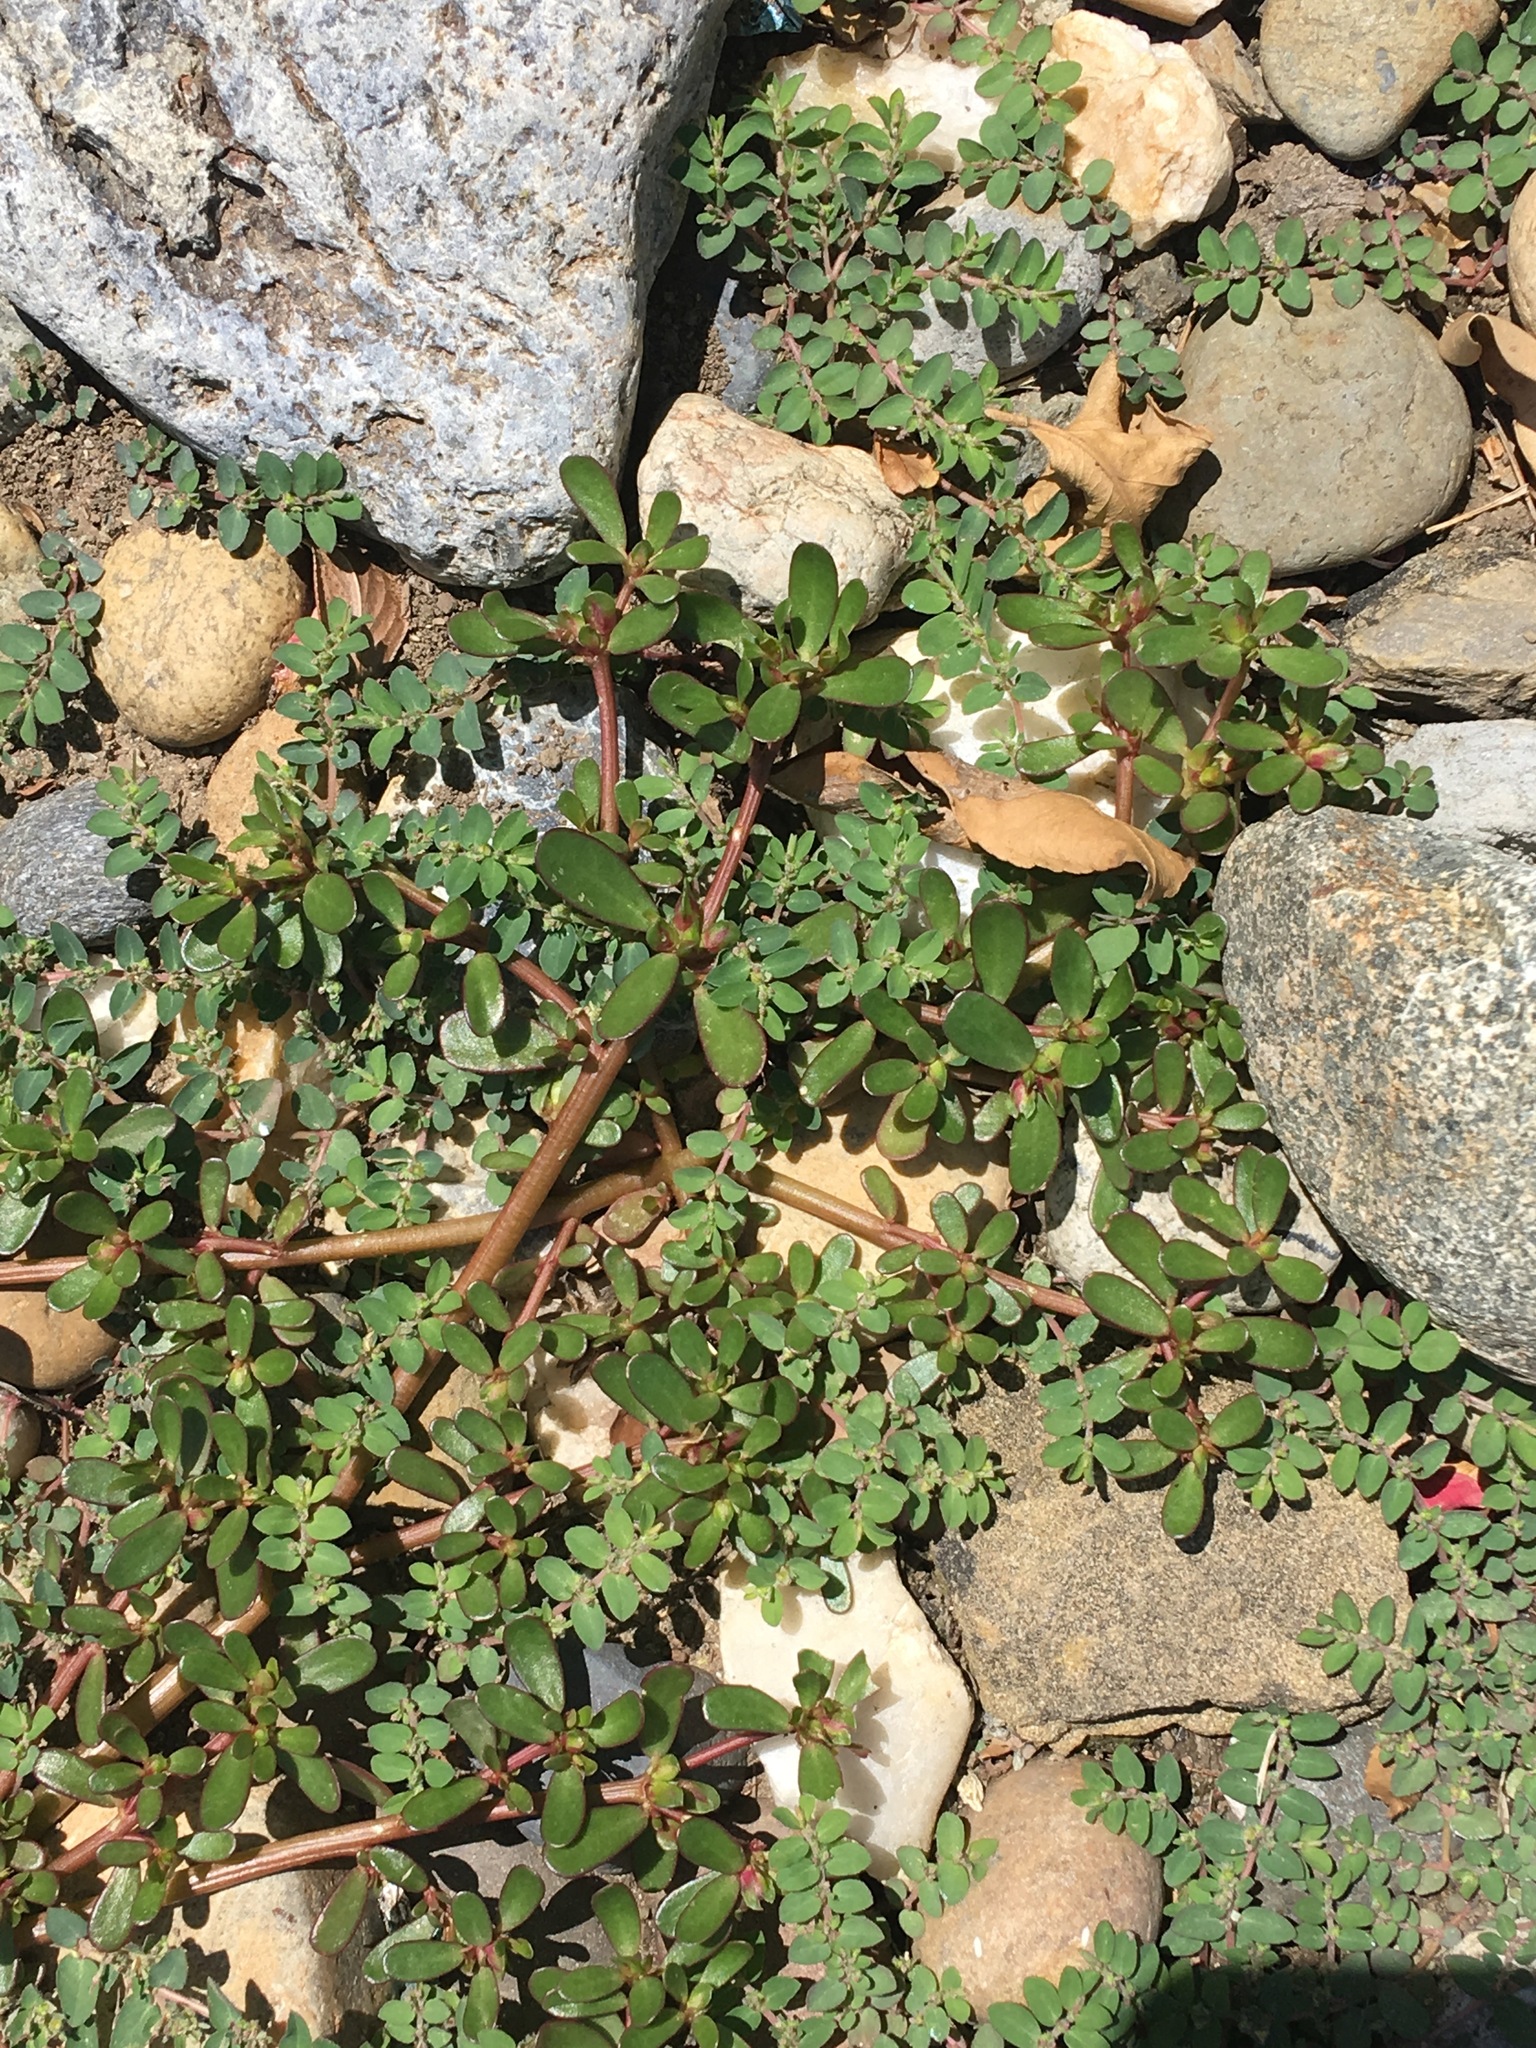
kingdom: Plantae
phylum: Tracheophyta
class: Magnoliopsida
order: Caryophyllales
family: Portulacaceae
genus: Portulaca
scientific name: Portulaca oleracea
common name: Common purslane
